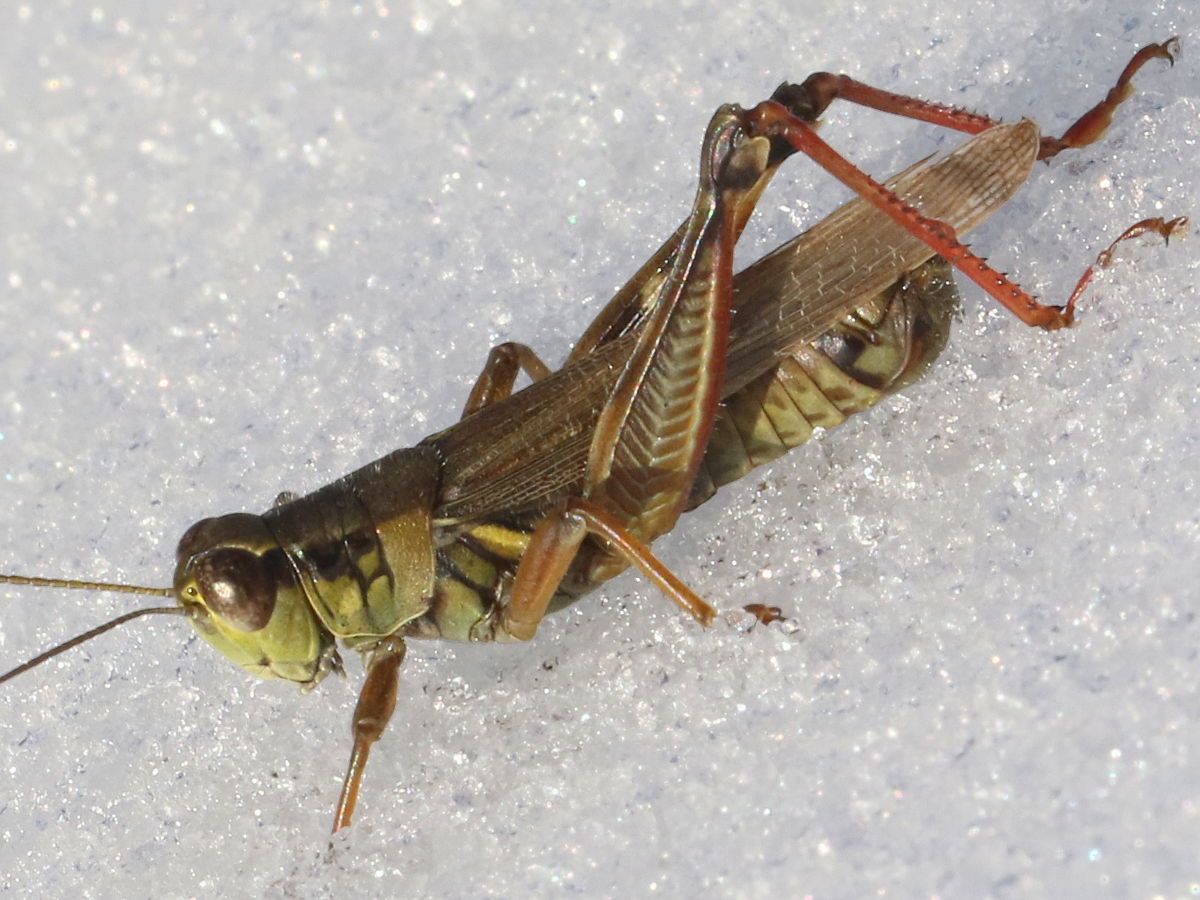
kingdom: Animalia
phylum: Arthropoda
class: Insecta
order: Orthoptera
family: Acrididae
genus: Melanoplus
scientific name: Melanoplus femurrubrum
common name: Red-legged grasshopper
